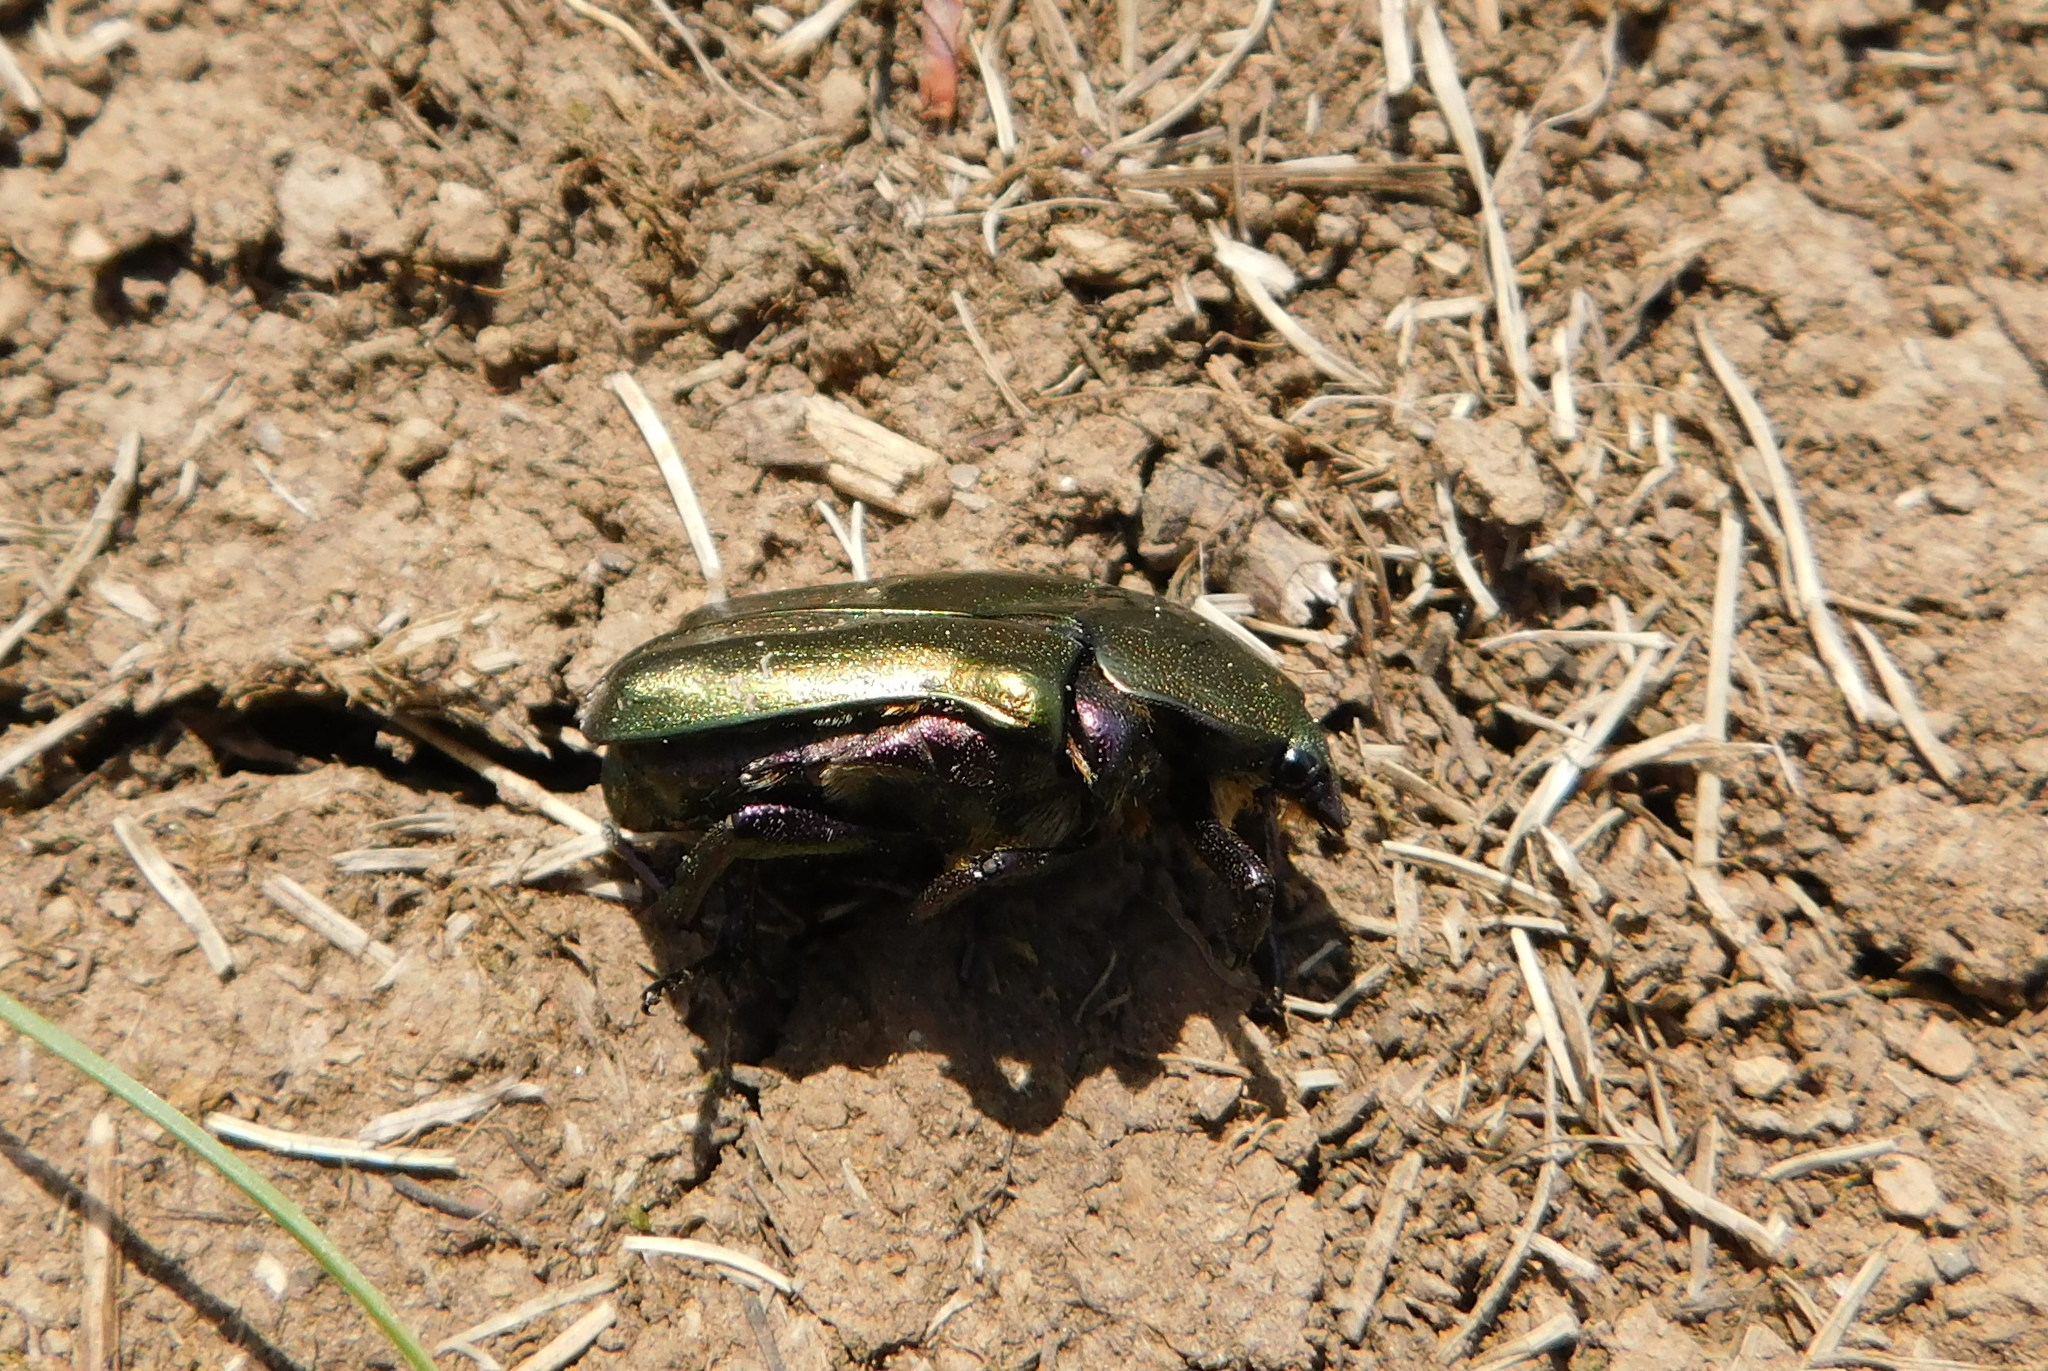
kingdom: Animalia
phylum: Arthropoda
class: Insecta
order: Coleoptera
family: Scarabaeidae
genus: Protaetia
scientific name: Protaetia cuprea
